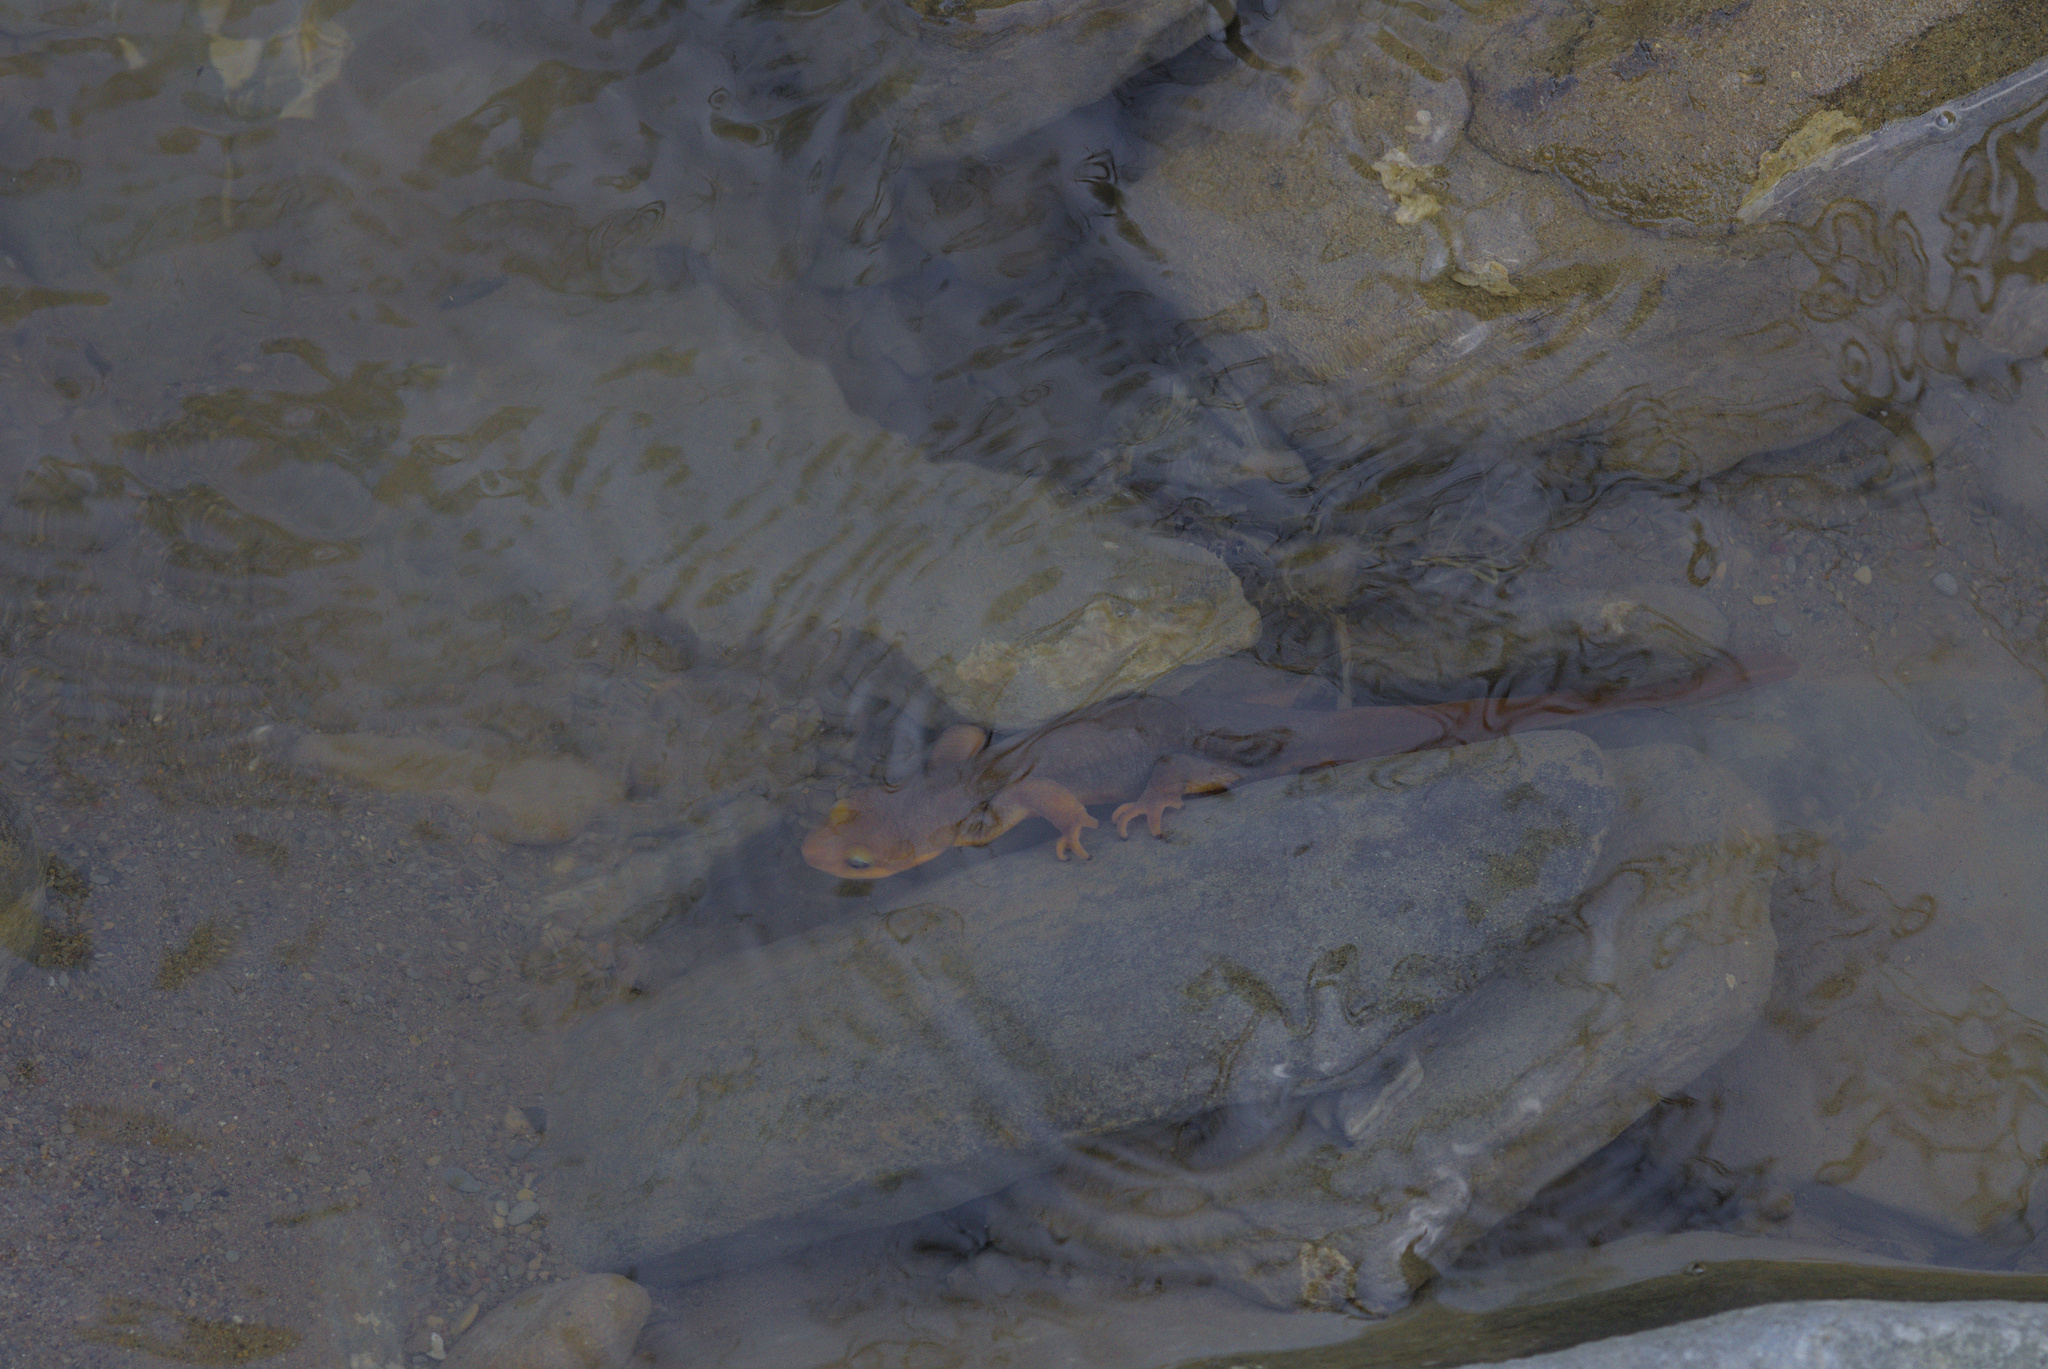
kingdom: Animalia
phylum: Chordata
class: Amphibia
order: Caudata
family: Salamandridae
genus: Taricha
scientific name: Taricha torosa
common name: California newt
